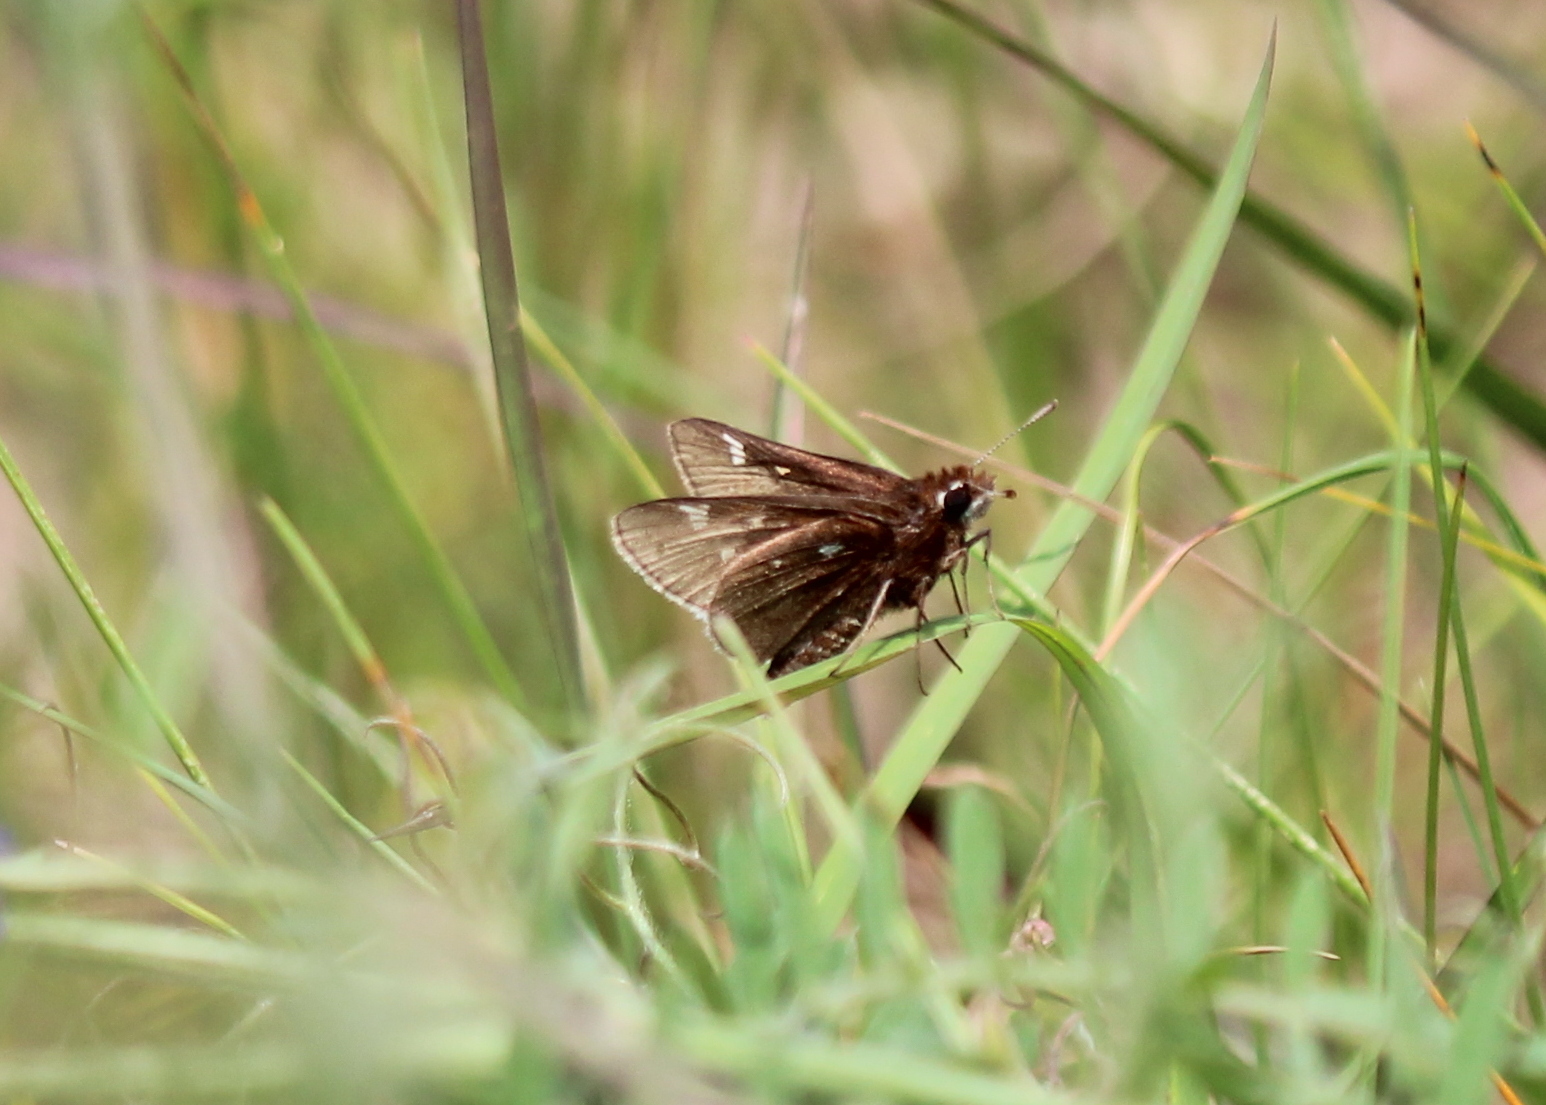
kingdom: Animalia
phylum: Arthropoda
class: Insecta
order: Lepidoptera
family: Hesperiidae
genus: Atrytonopsis
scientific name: Atrytonopsis hianna
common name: Dusted skipper
